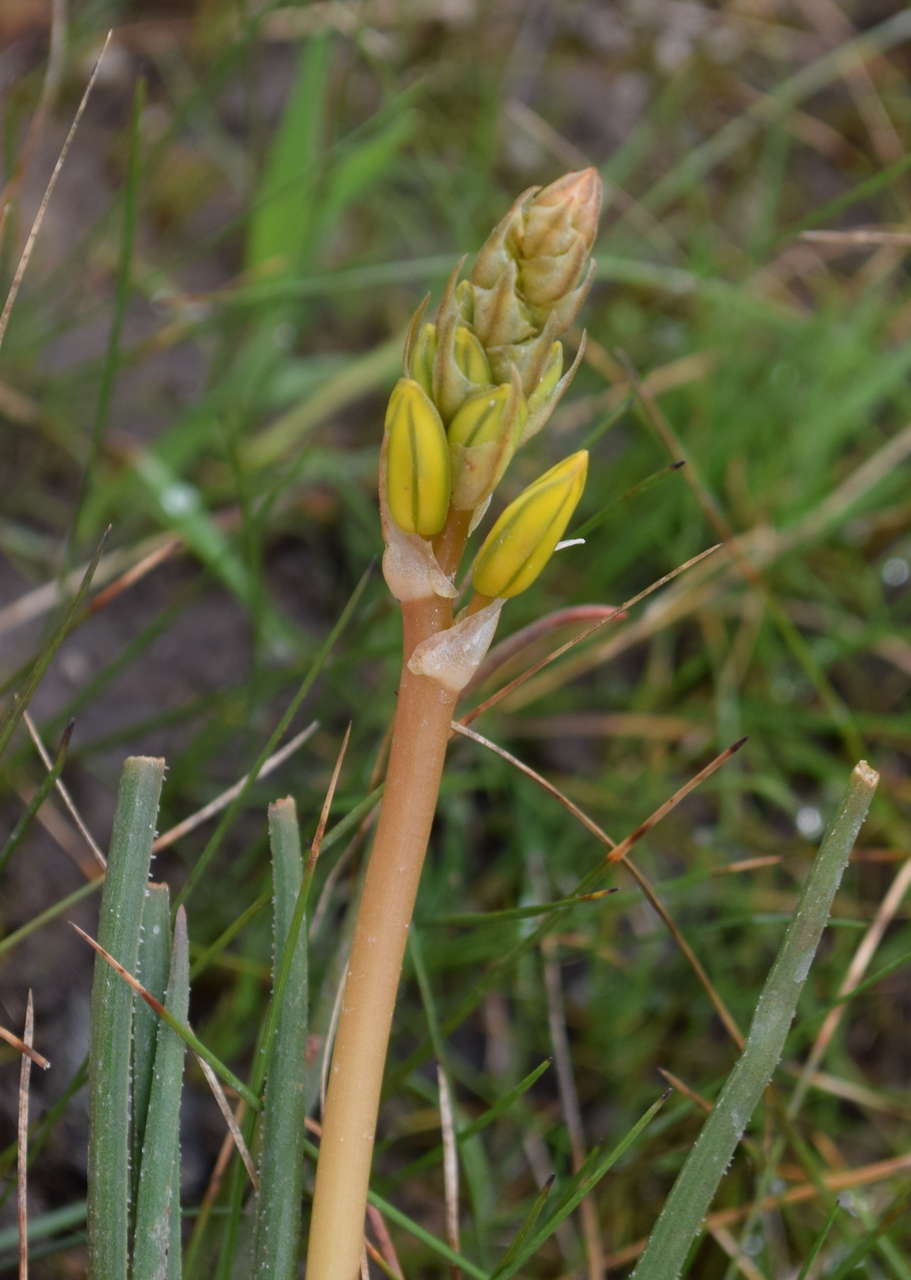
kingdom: Plantae
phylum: Tracheophyta
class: Liliopsida
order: Asparagales
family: Asphodelaceae
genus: Bulbine
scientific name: Bulbine bulbosa
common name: Golden-lily
